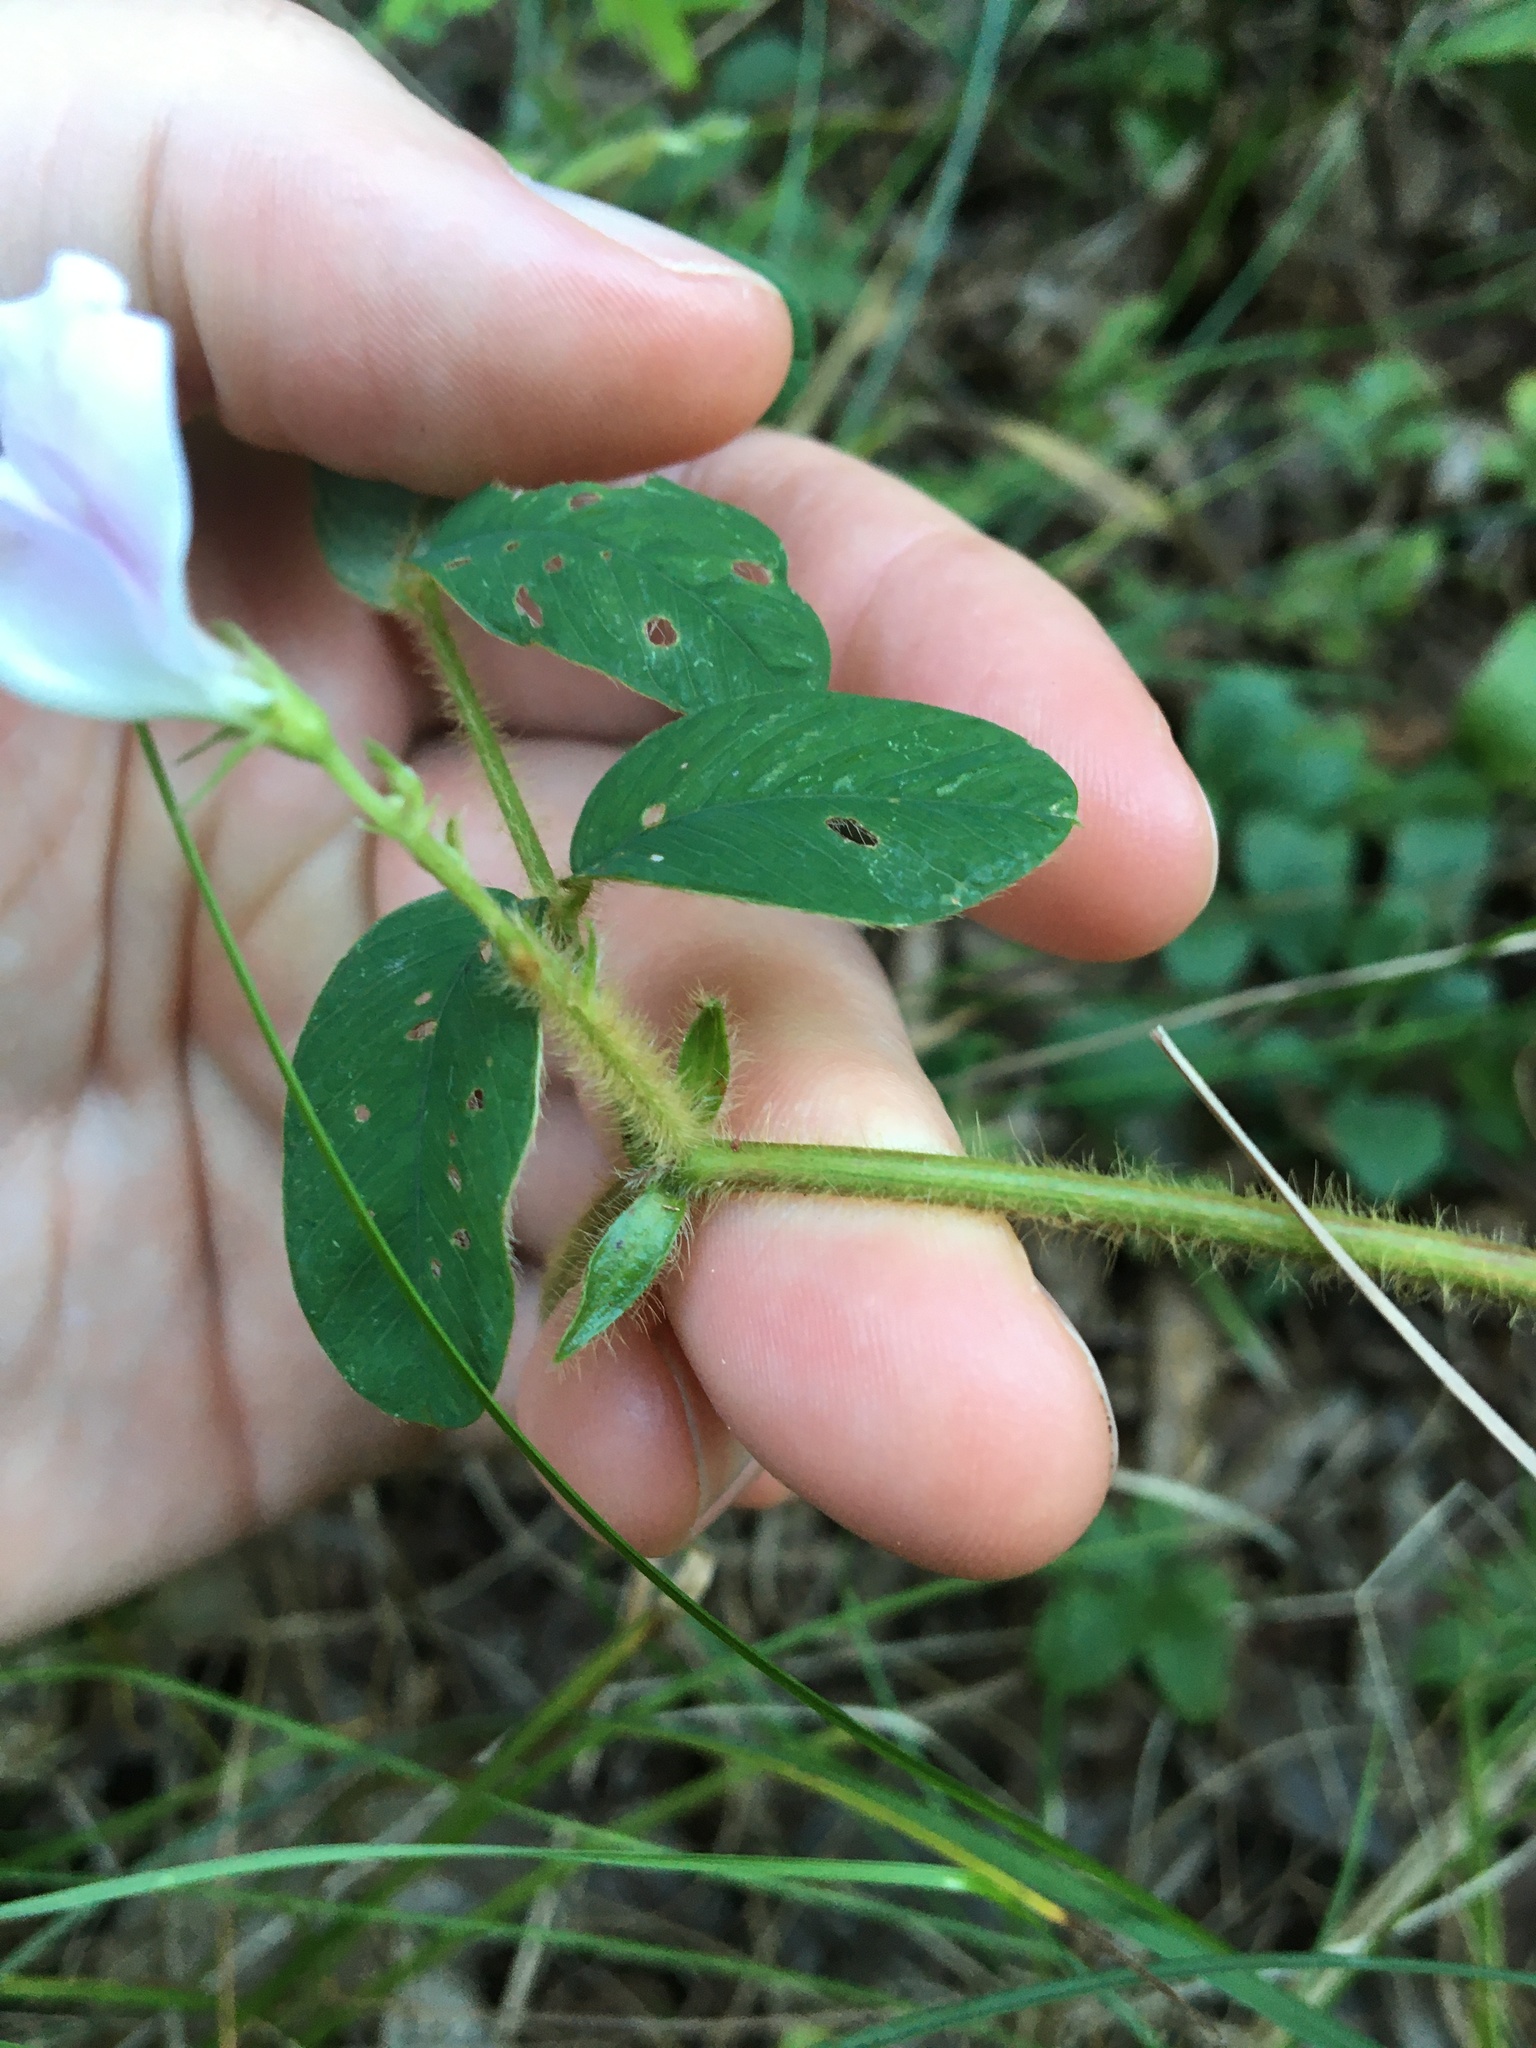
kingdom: Plantae
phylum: Tracheophyta
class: Magnoliopsida
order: Fabales
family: Fabaceae
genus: Tephrosia
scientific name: Tephrosia spicata
